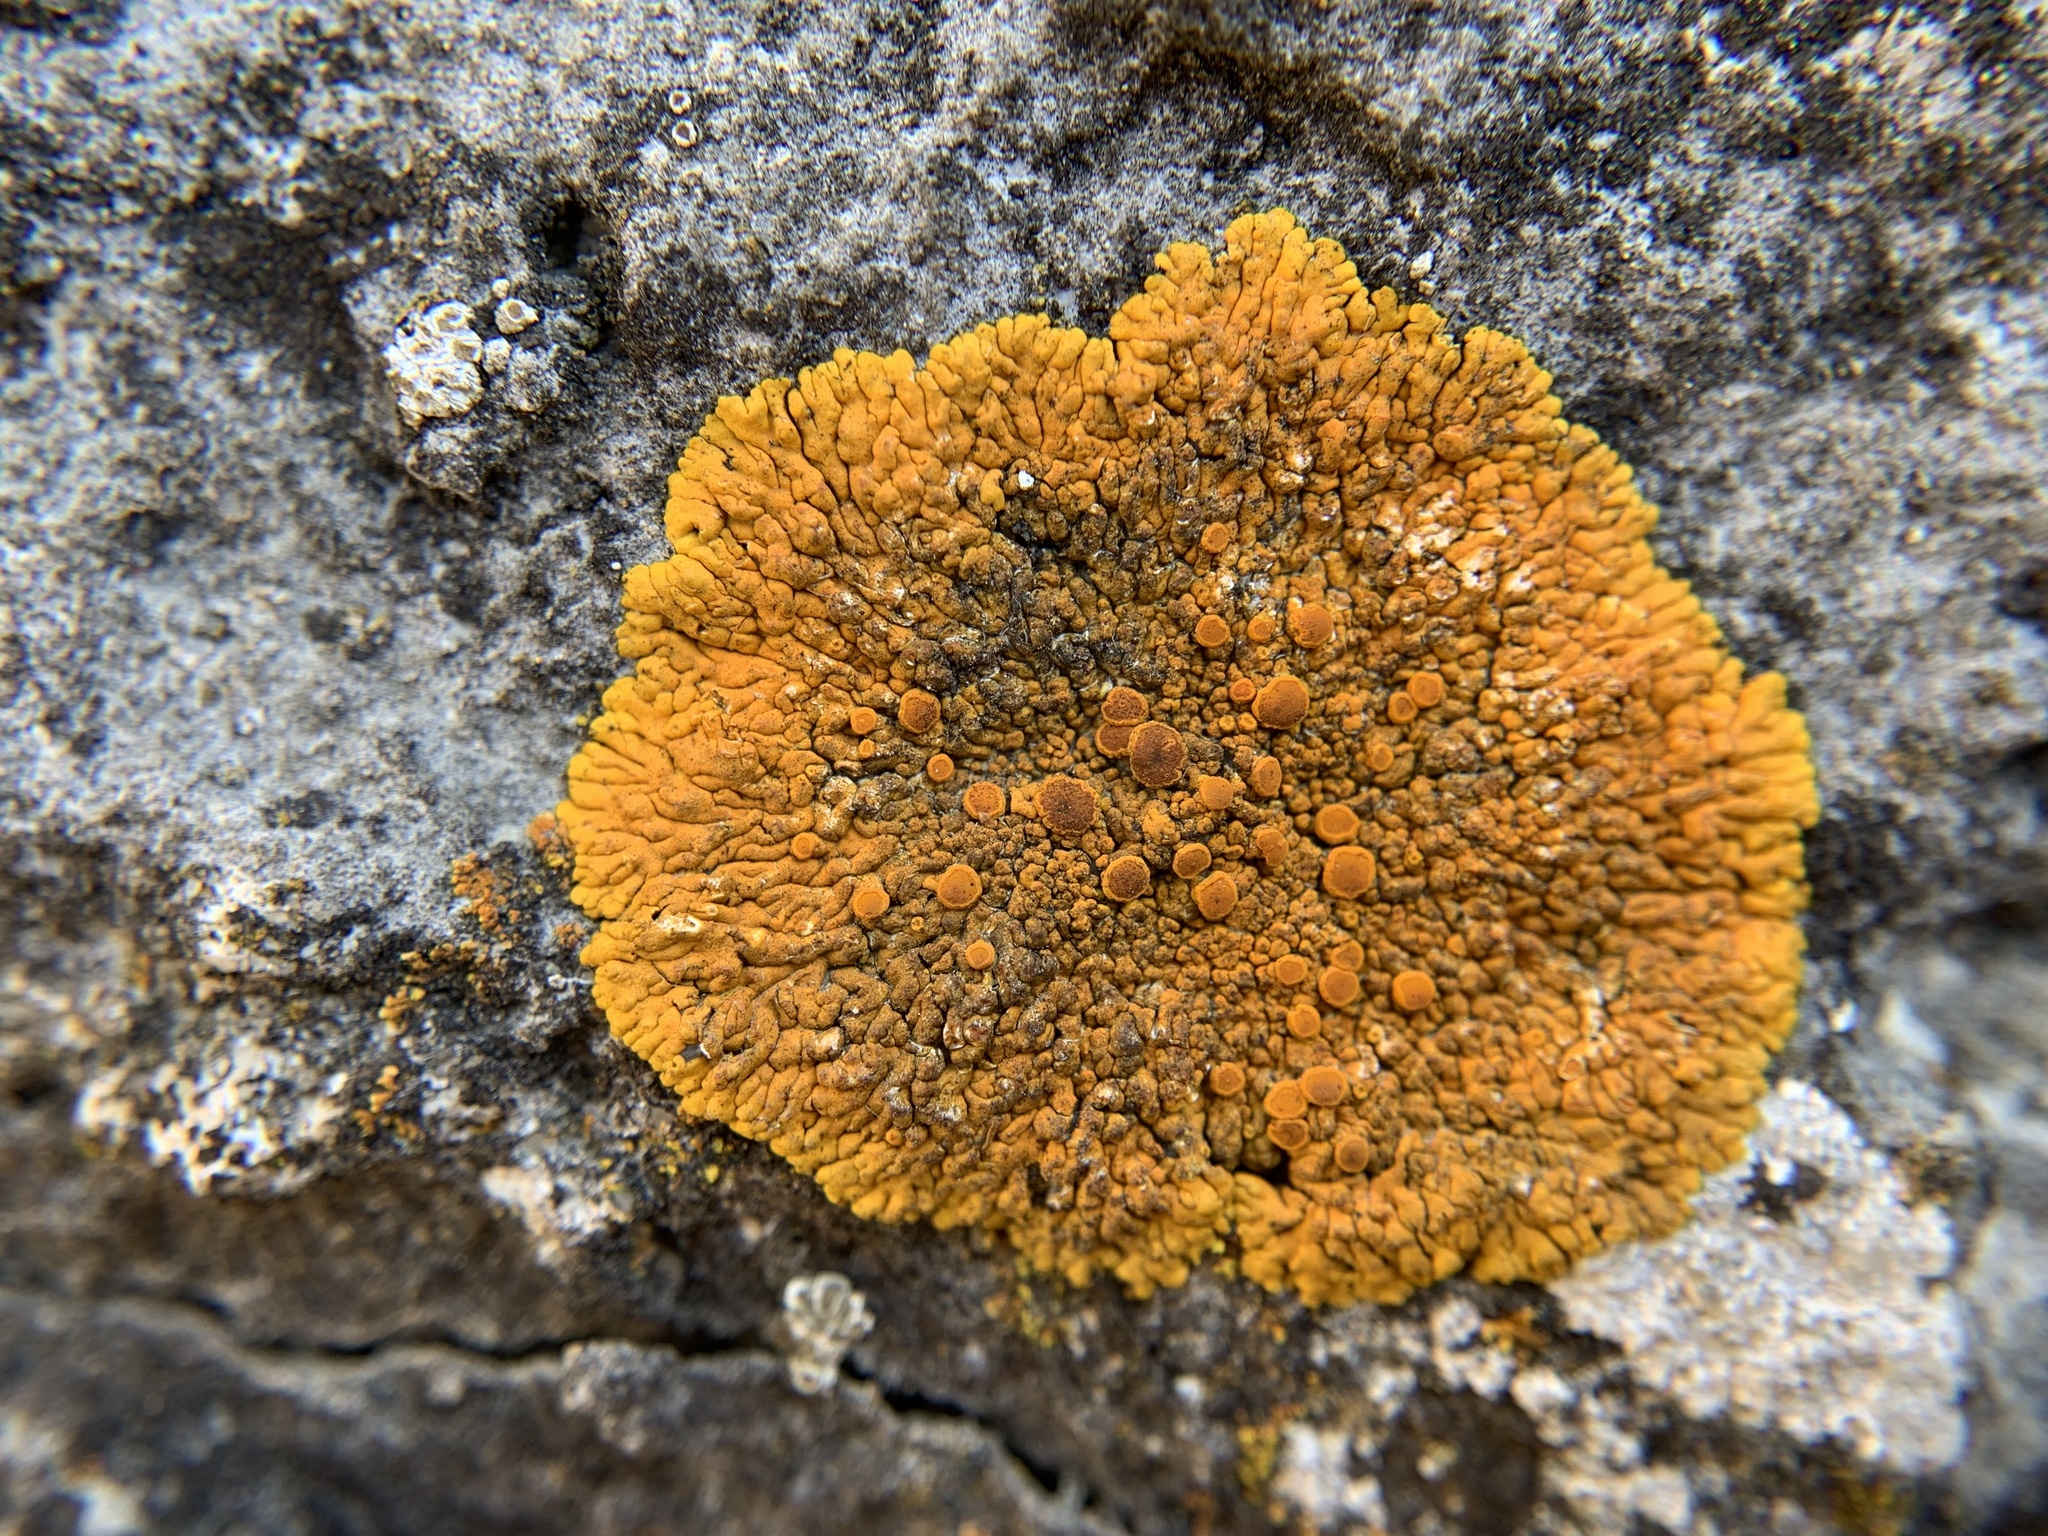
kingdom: Fungi
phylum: Ascomycota
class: Lecanoromycetes
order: Teloschistales
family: Teloschistaceae
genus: Variospora
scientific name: Variospora flavescens
